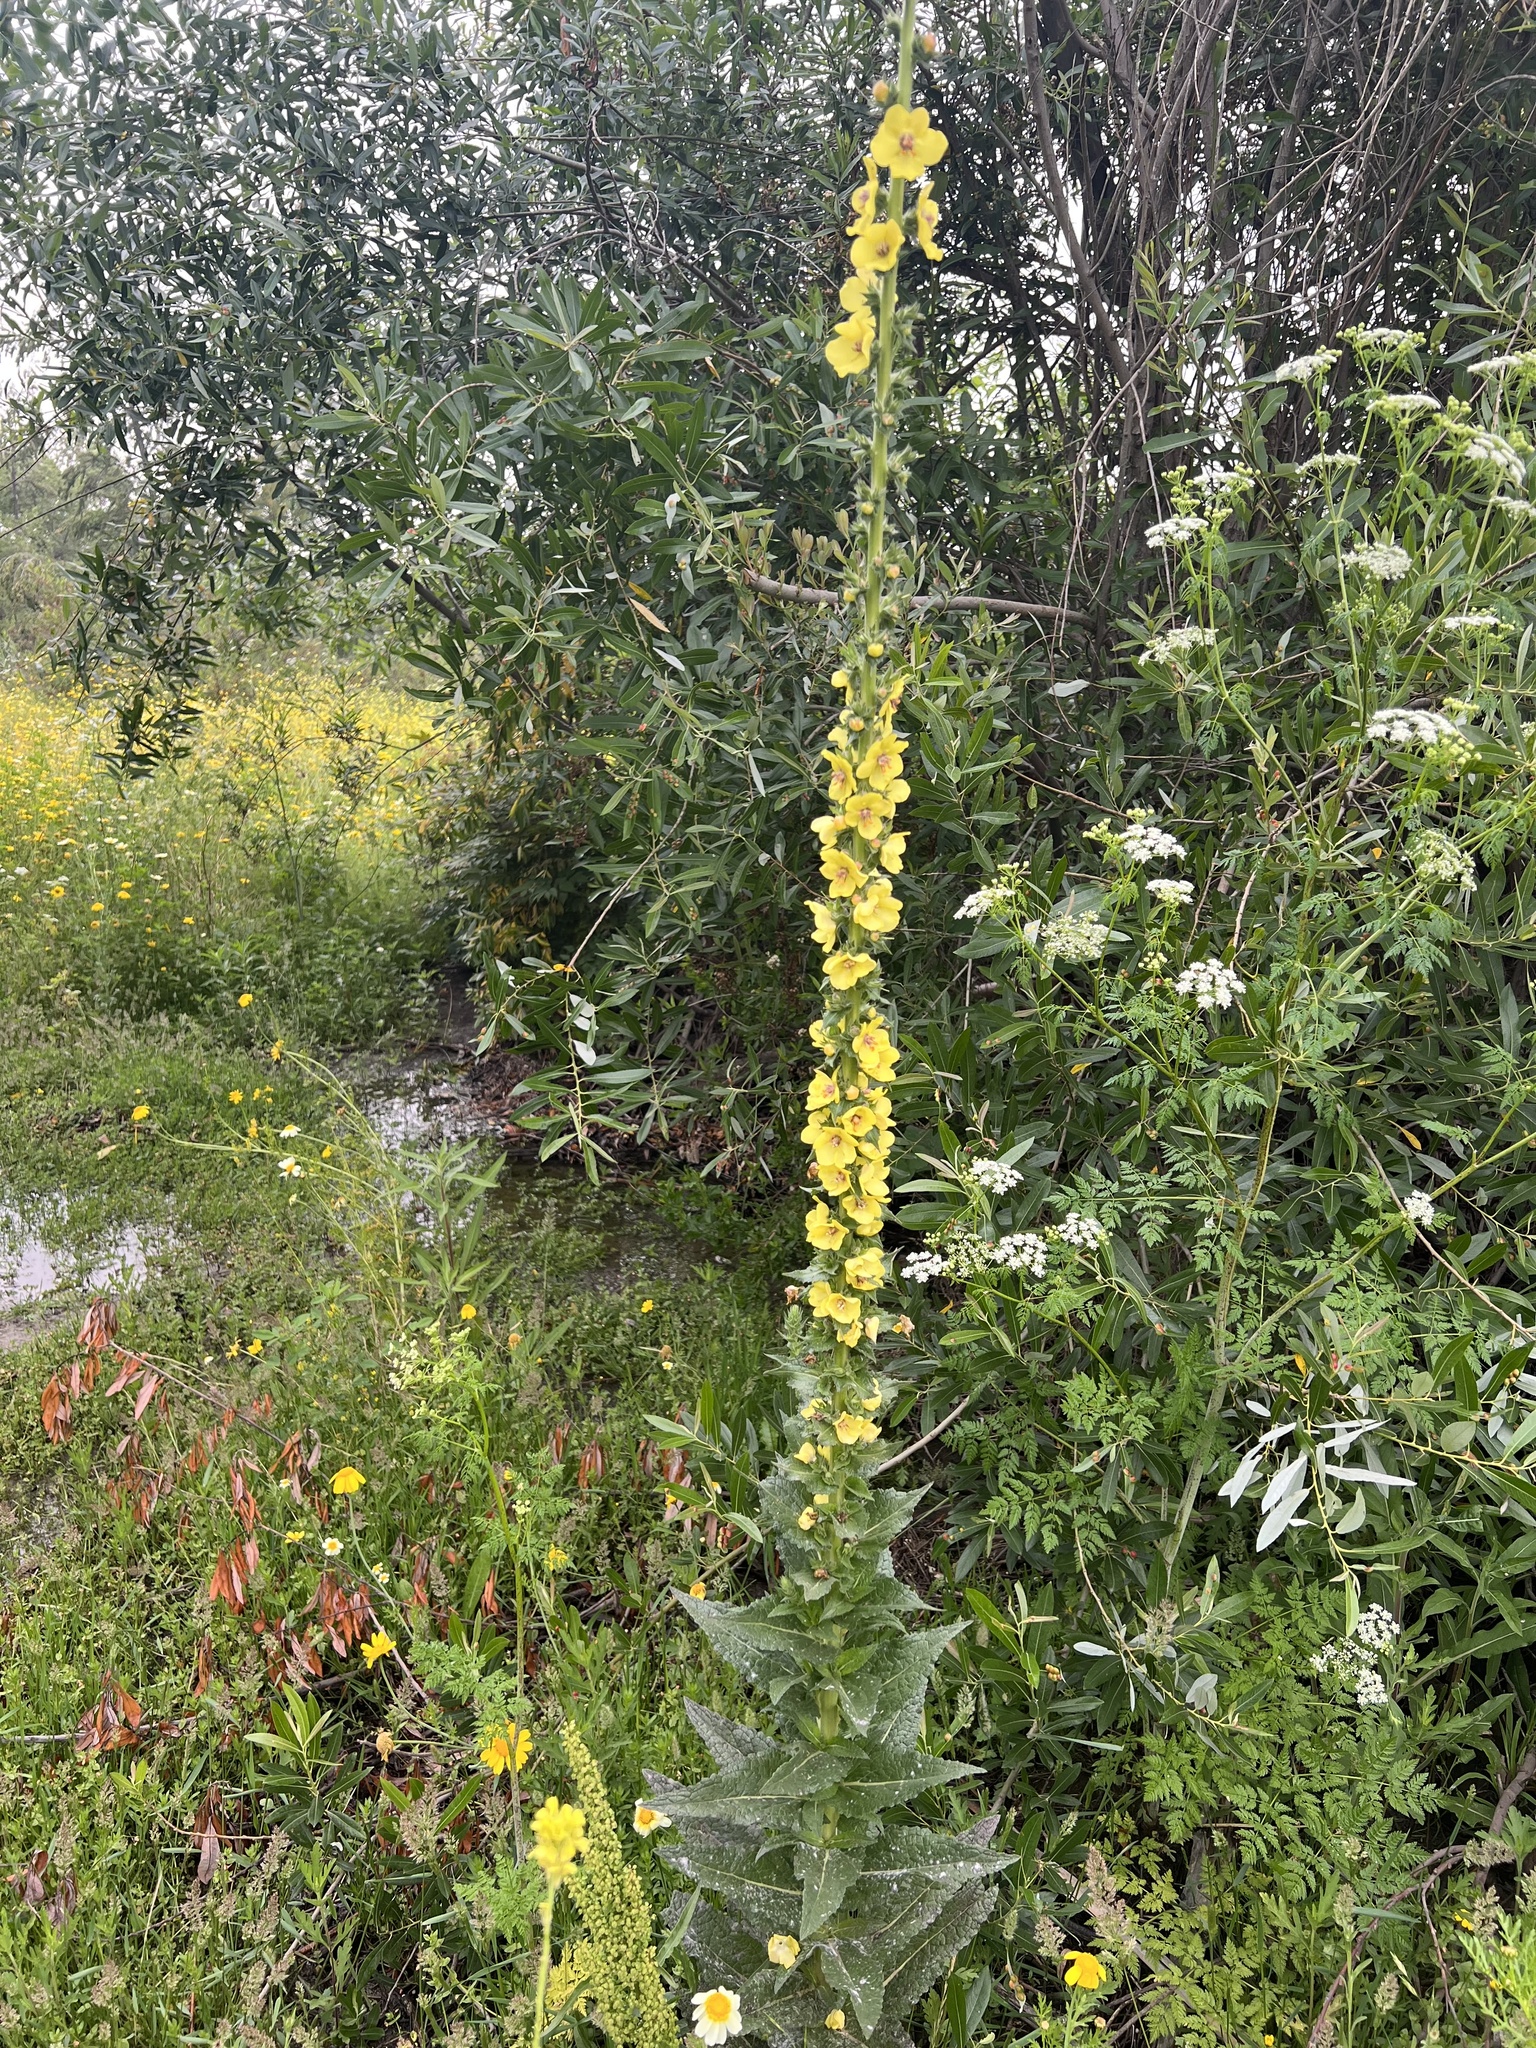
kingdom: Plantae
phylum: Tracheophyta
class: Magnoliopsida
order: Lamiales
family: Scrophulariaceae
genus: Verbascum
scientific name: Verbascum virgatum
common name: Twiggy mullein
